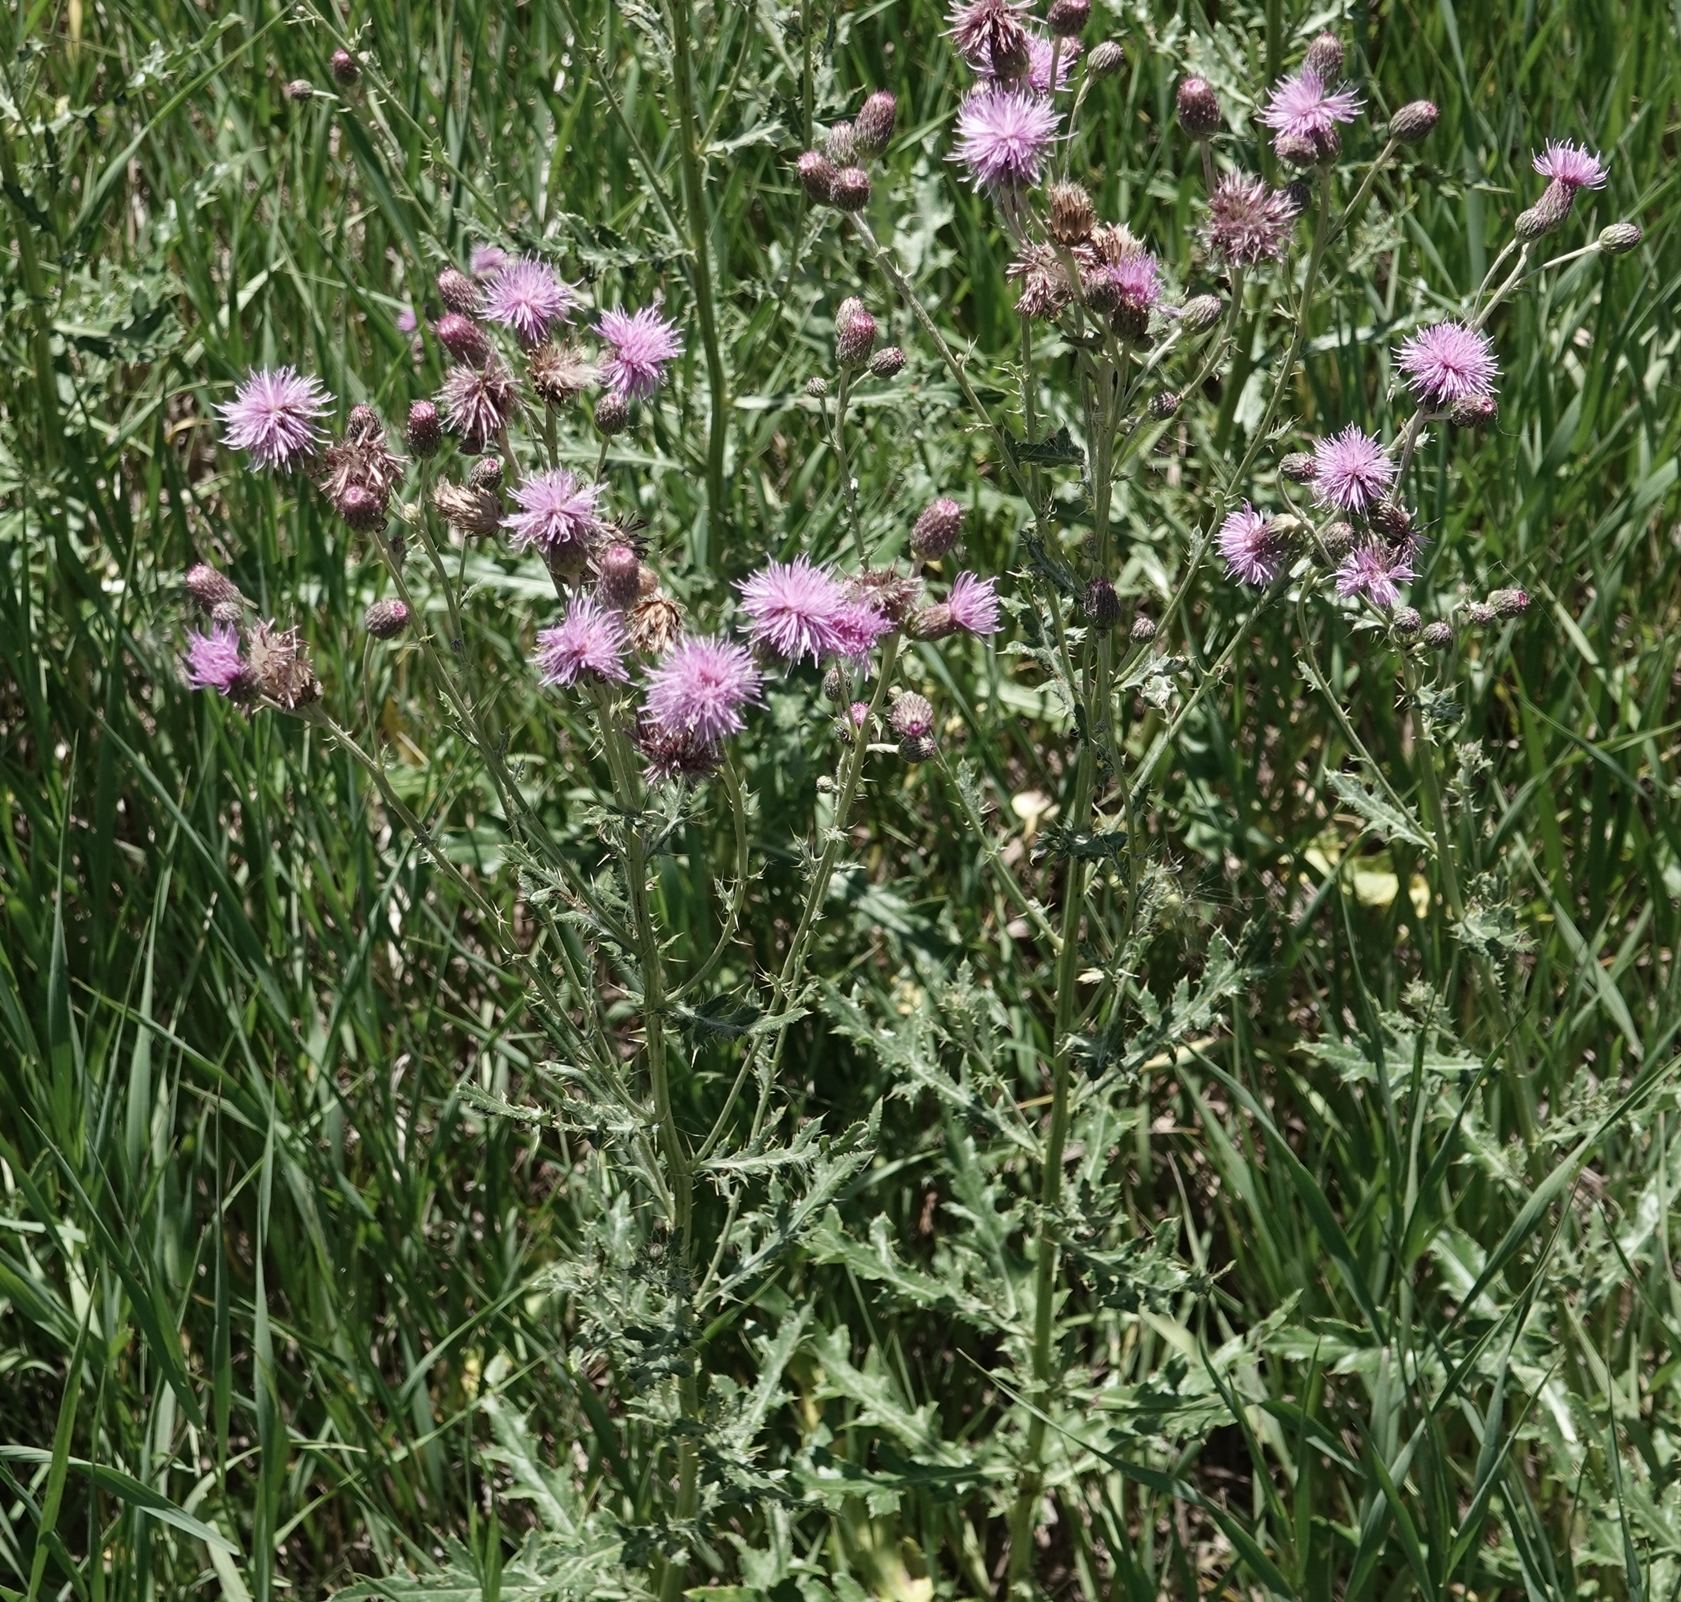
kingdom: Plantae
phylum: Tracheophyta
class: Magnoliopsida
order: Asterales
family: Asteraceae
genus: Cirsium
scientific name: Cirsium arvense
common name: Creeping thistle
